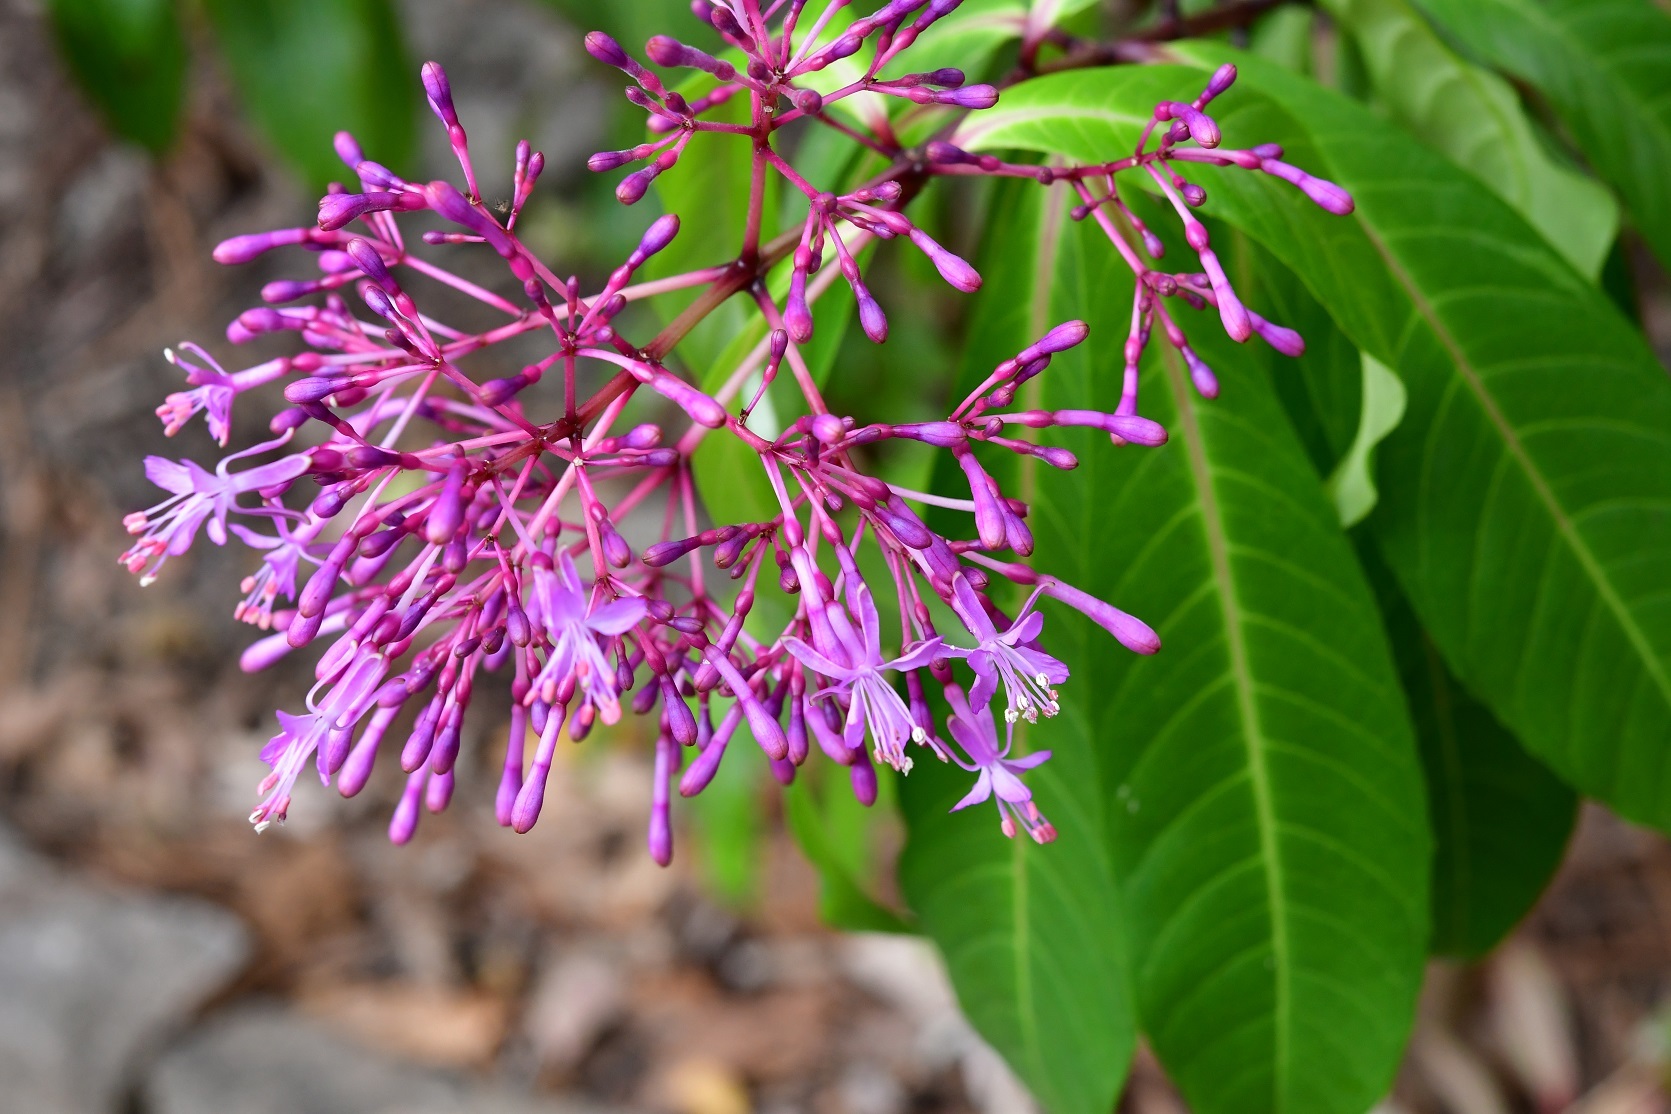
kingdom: Plantae
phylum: Tracheophyta
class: Magnoliopsida
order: Myrtales
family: Onagraceae
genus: Fuchsia
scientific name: Fuchsia paniculata
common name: Shrubby fuchsia
